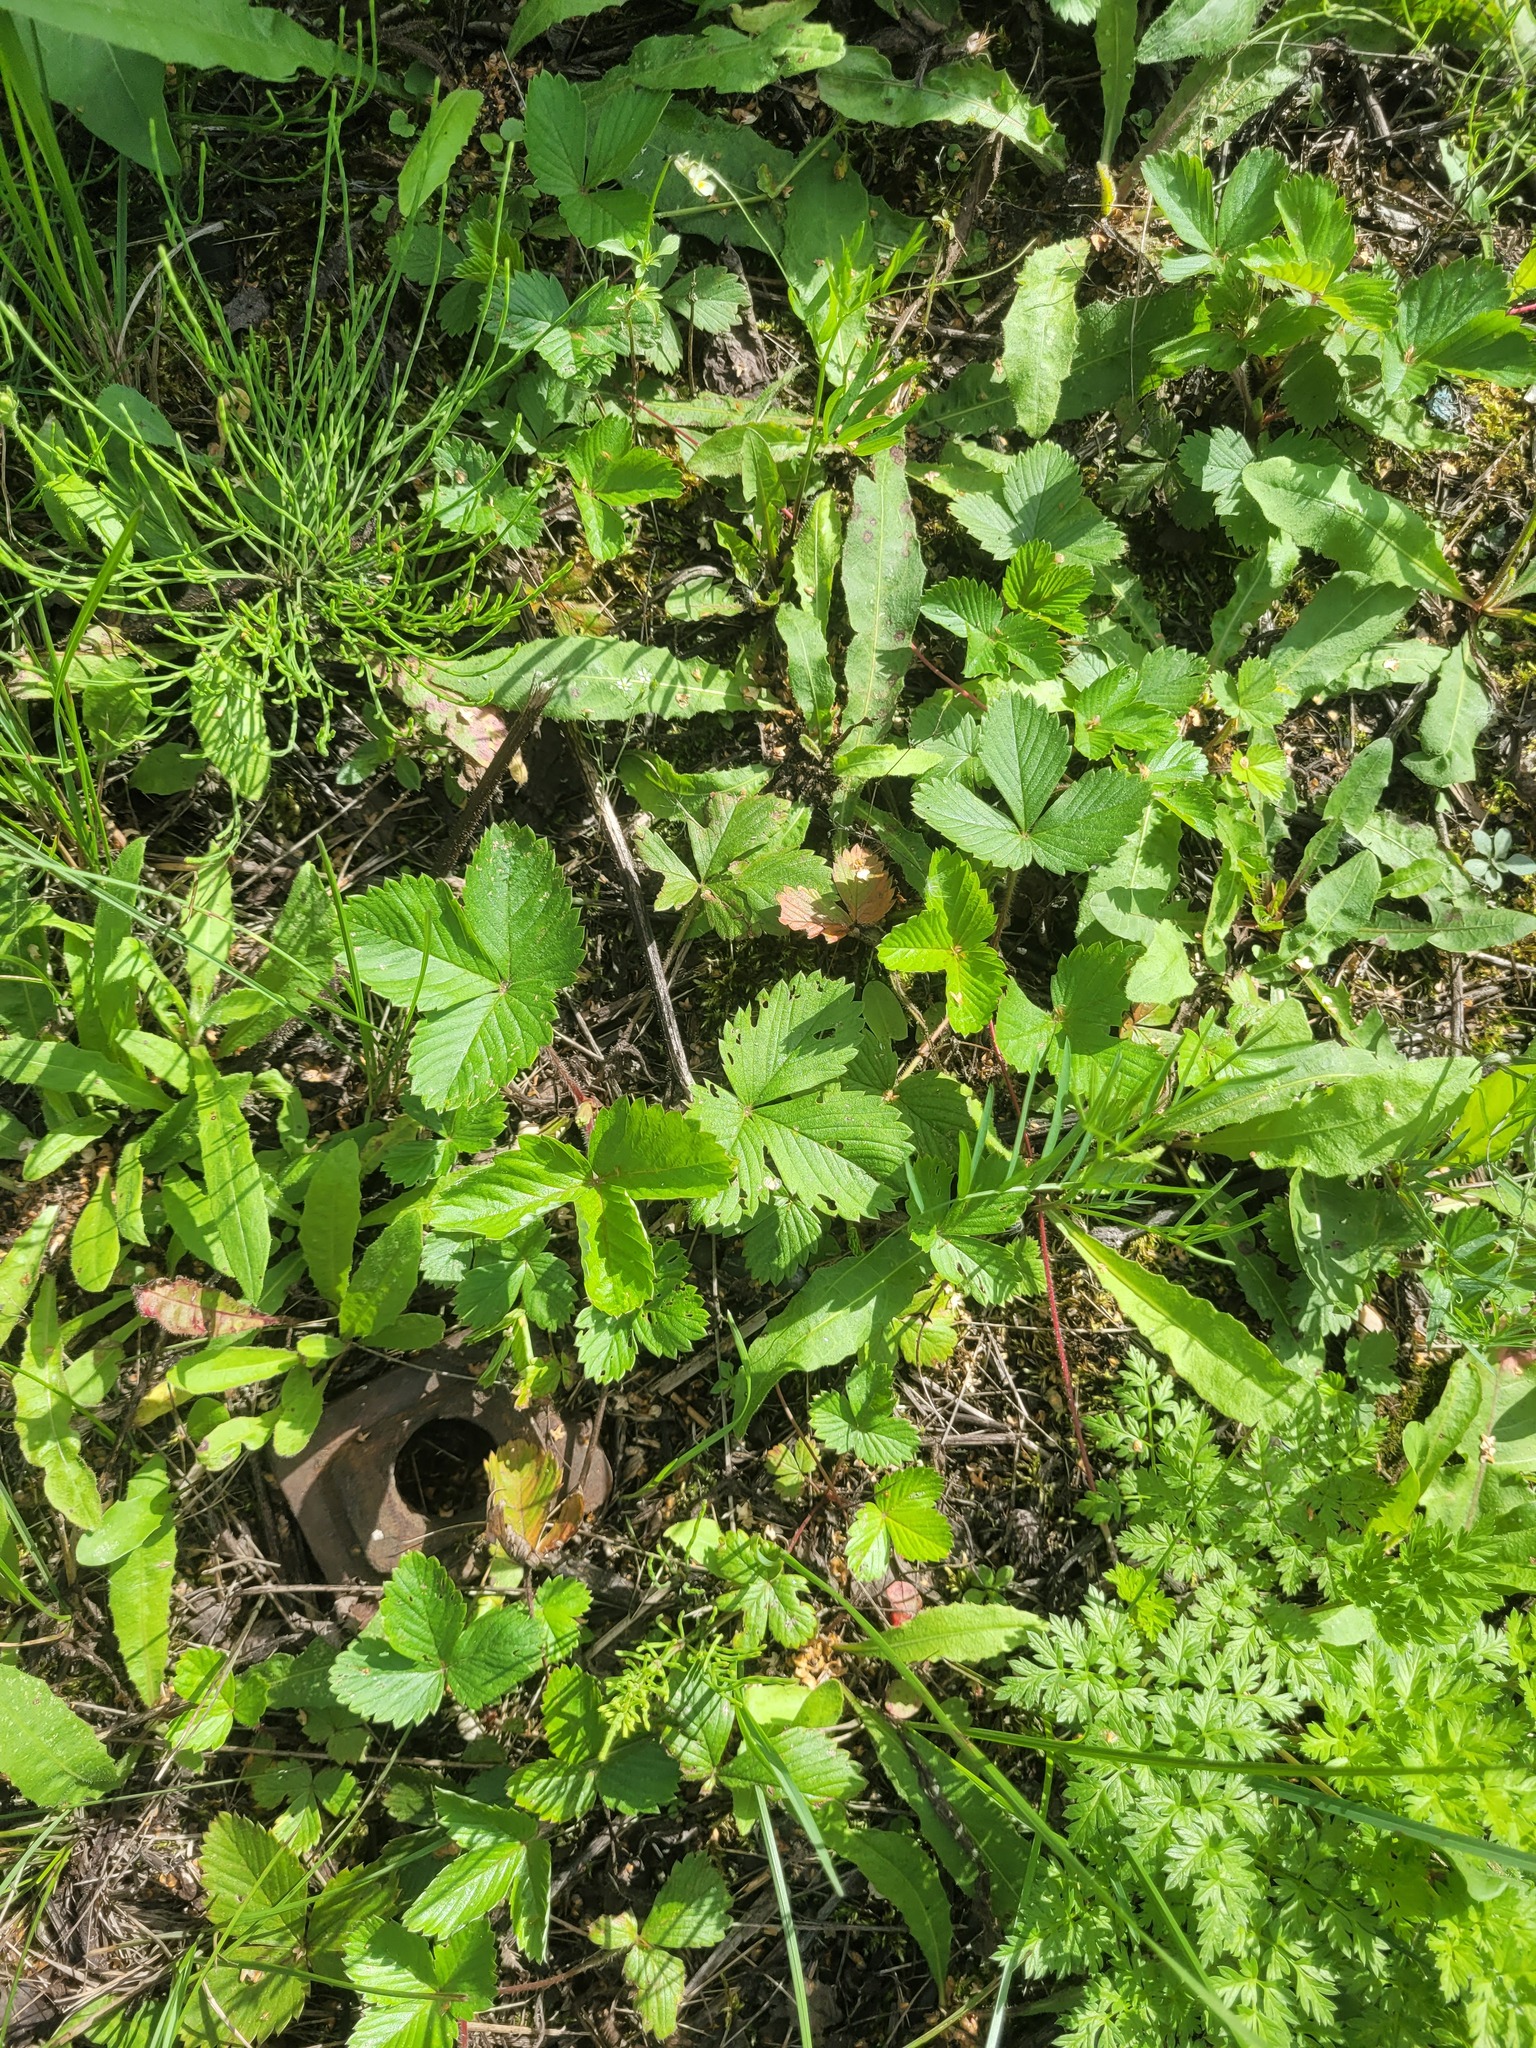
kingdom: Plantae
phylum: Tracheophyta
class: Magnoliopsida
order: Rosales
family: Rosaceae
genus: Fragaria
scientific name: Fragaria vesca
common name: Wild strawberry
